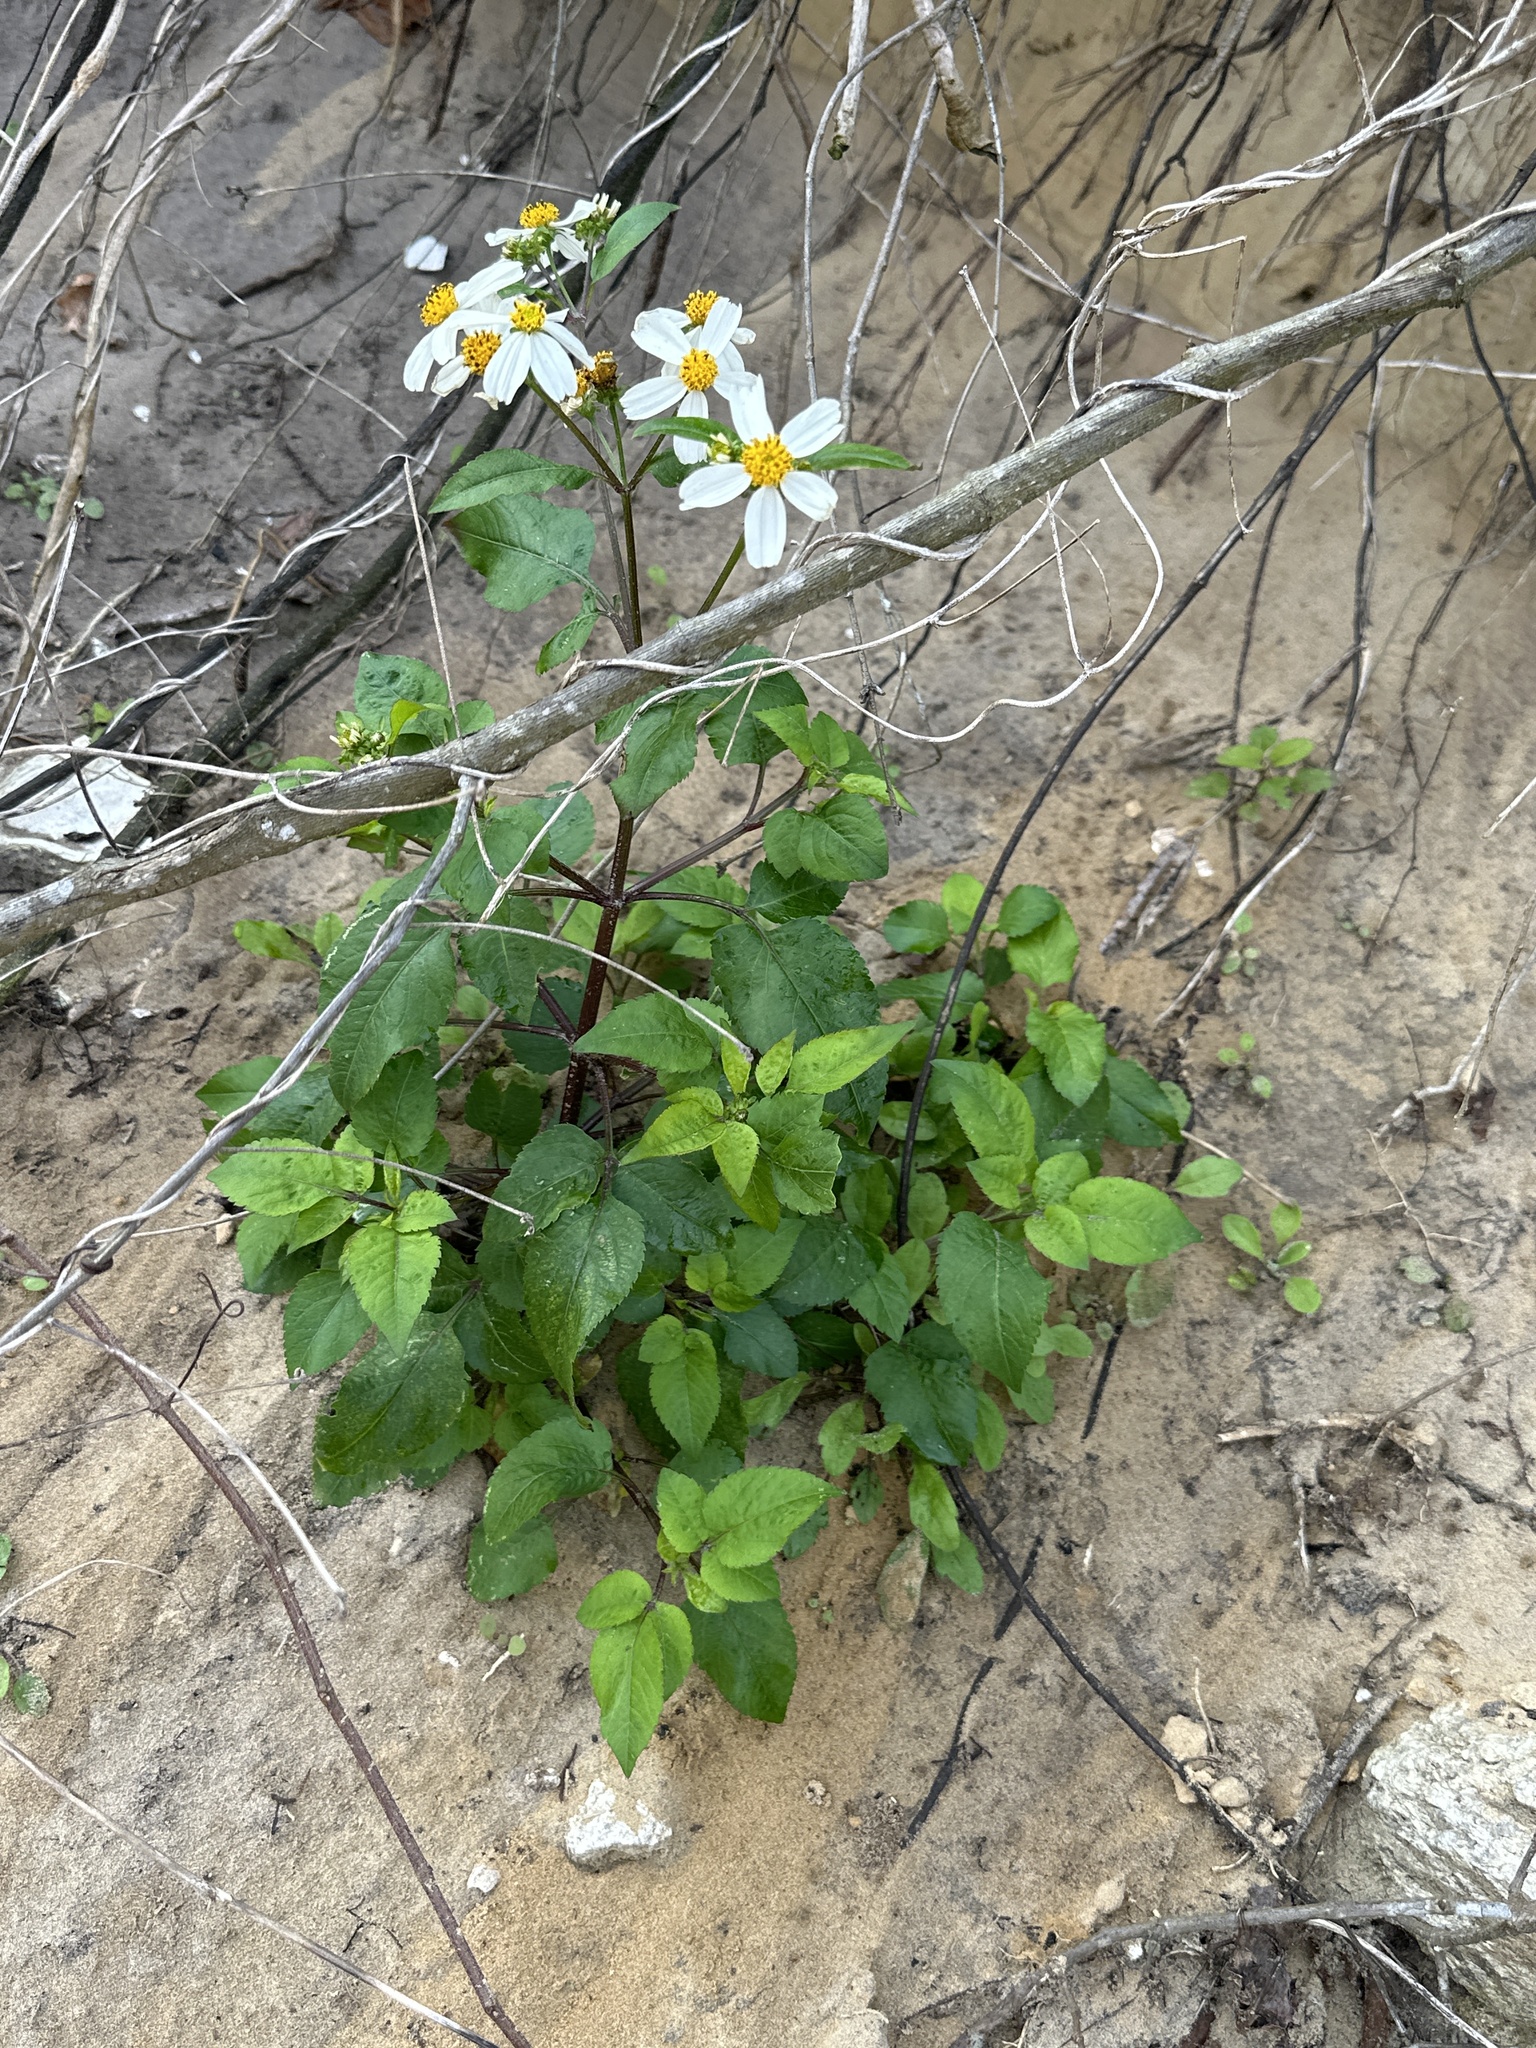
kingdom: Plantae
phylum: Tracheophyta
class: Magnoliopsida
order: Asterales
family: Asteraceae
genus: Bidens
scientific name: Bidens alba
